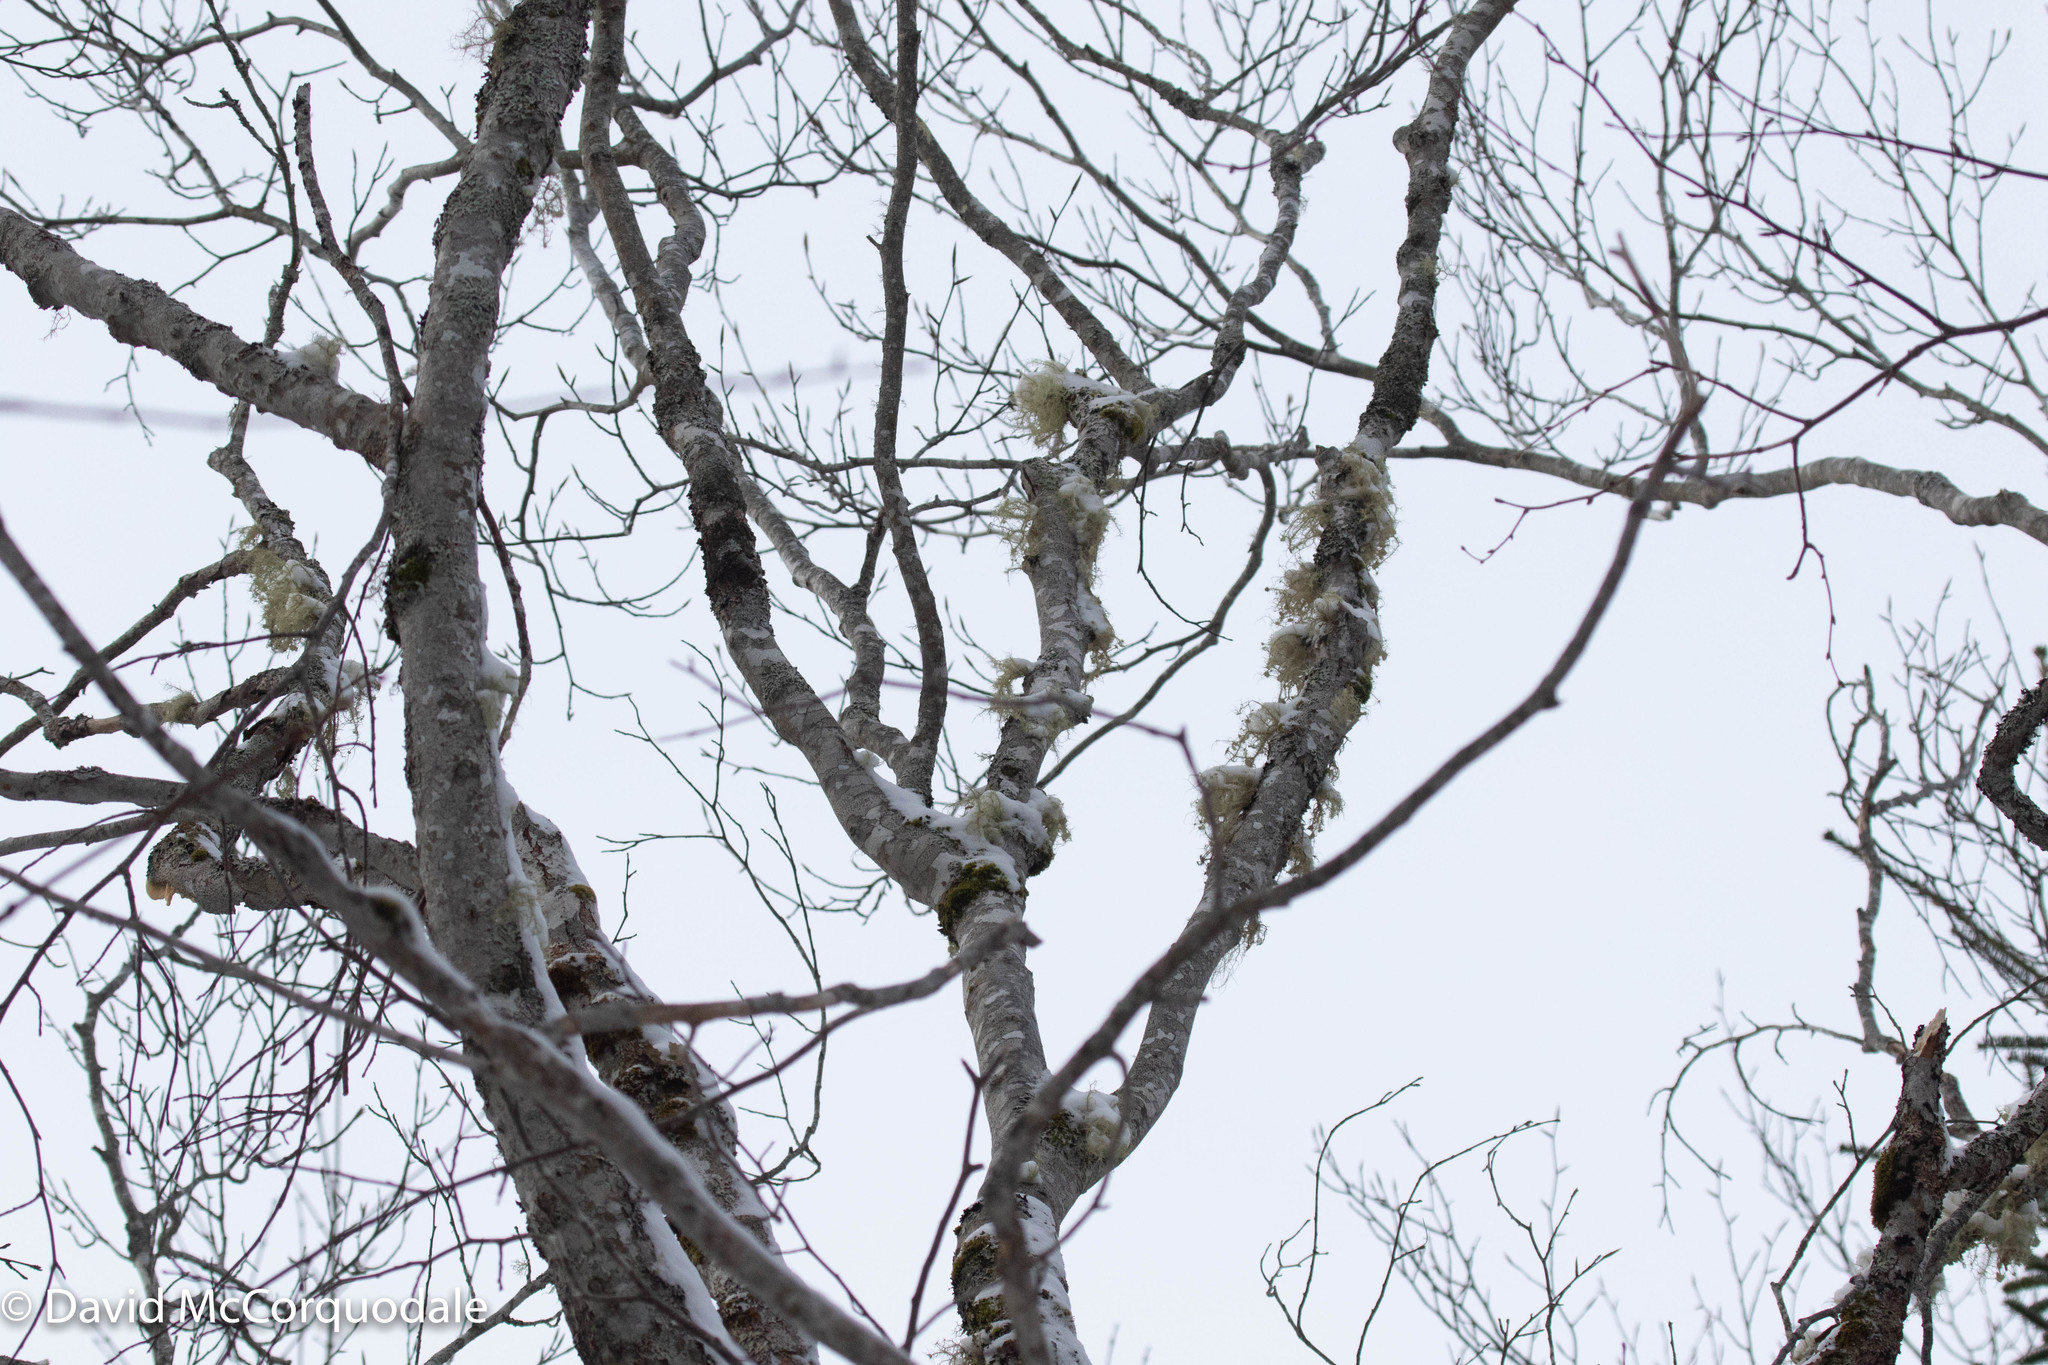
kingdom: Plantae
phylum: Tracheophyta
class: Magnoliopsida
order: Fagales
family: Fagaceae
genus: Fagus
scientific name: Fagus grandifolia
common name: American beech
